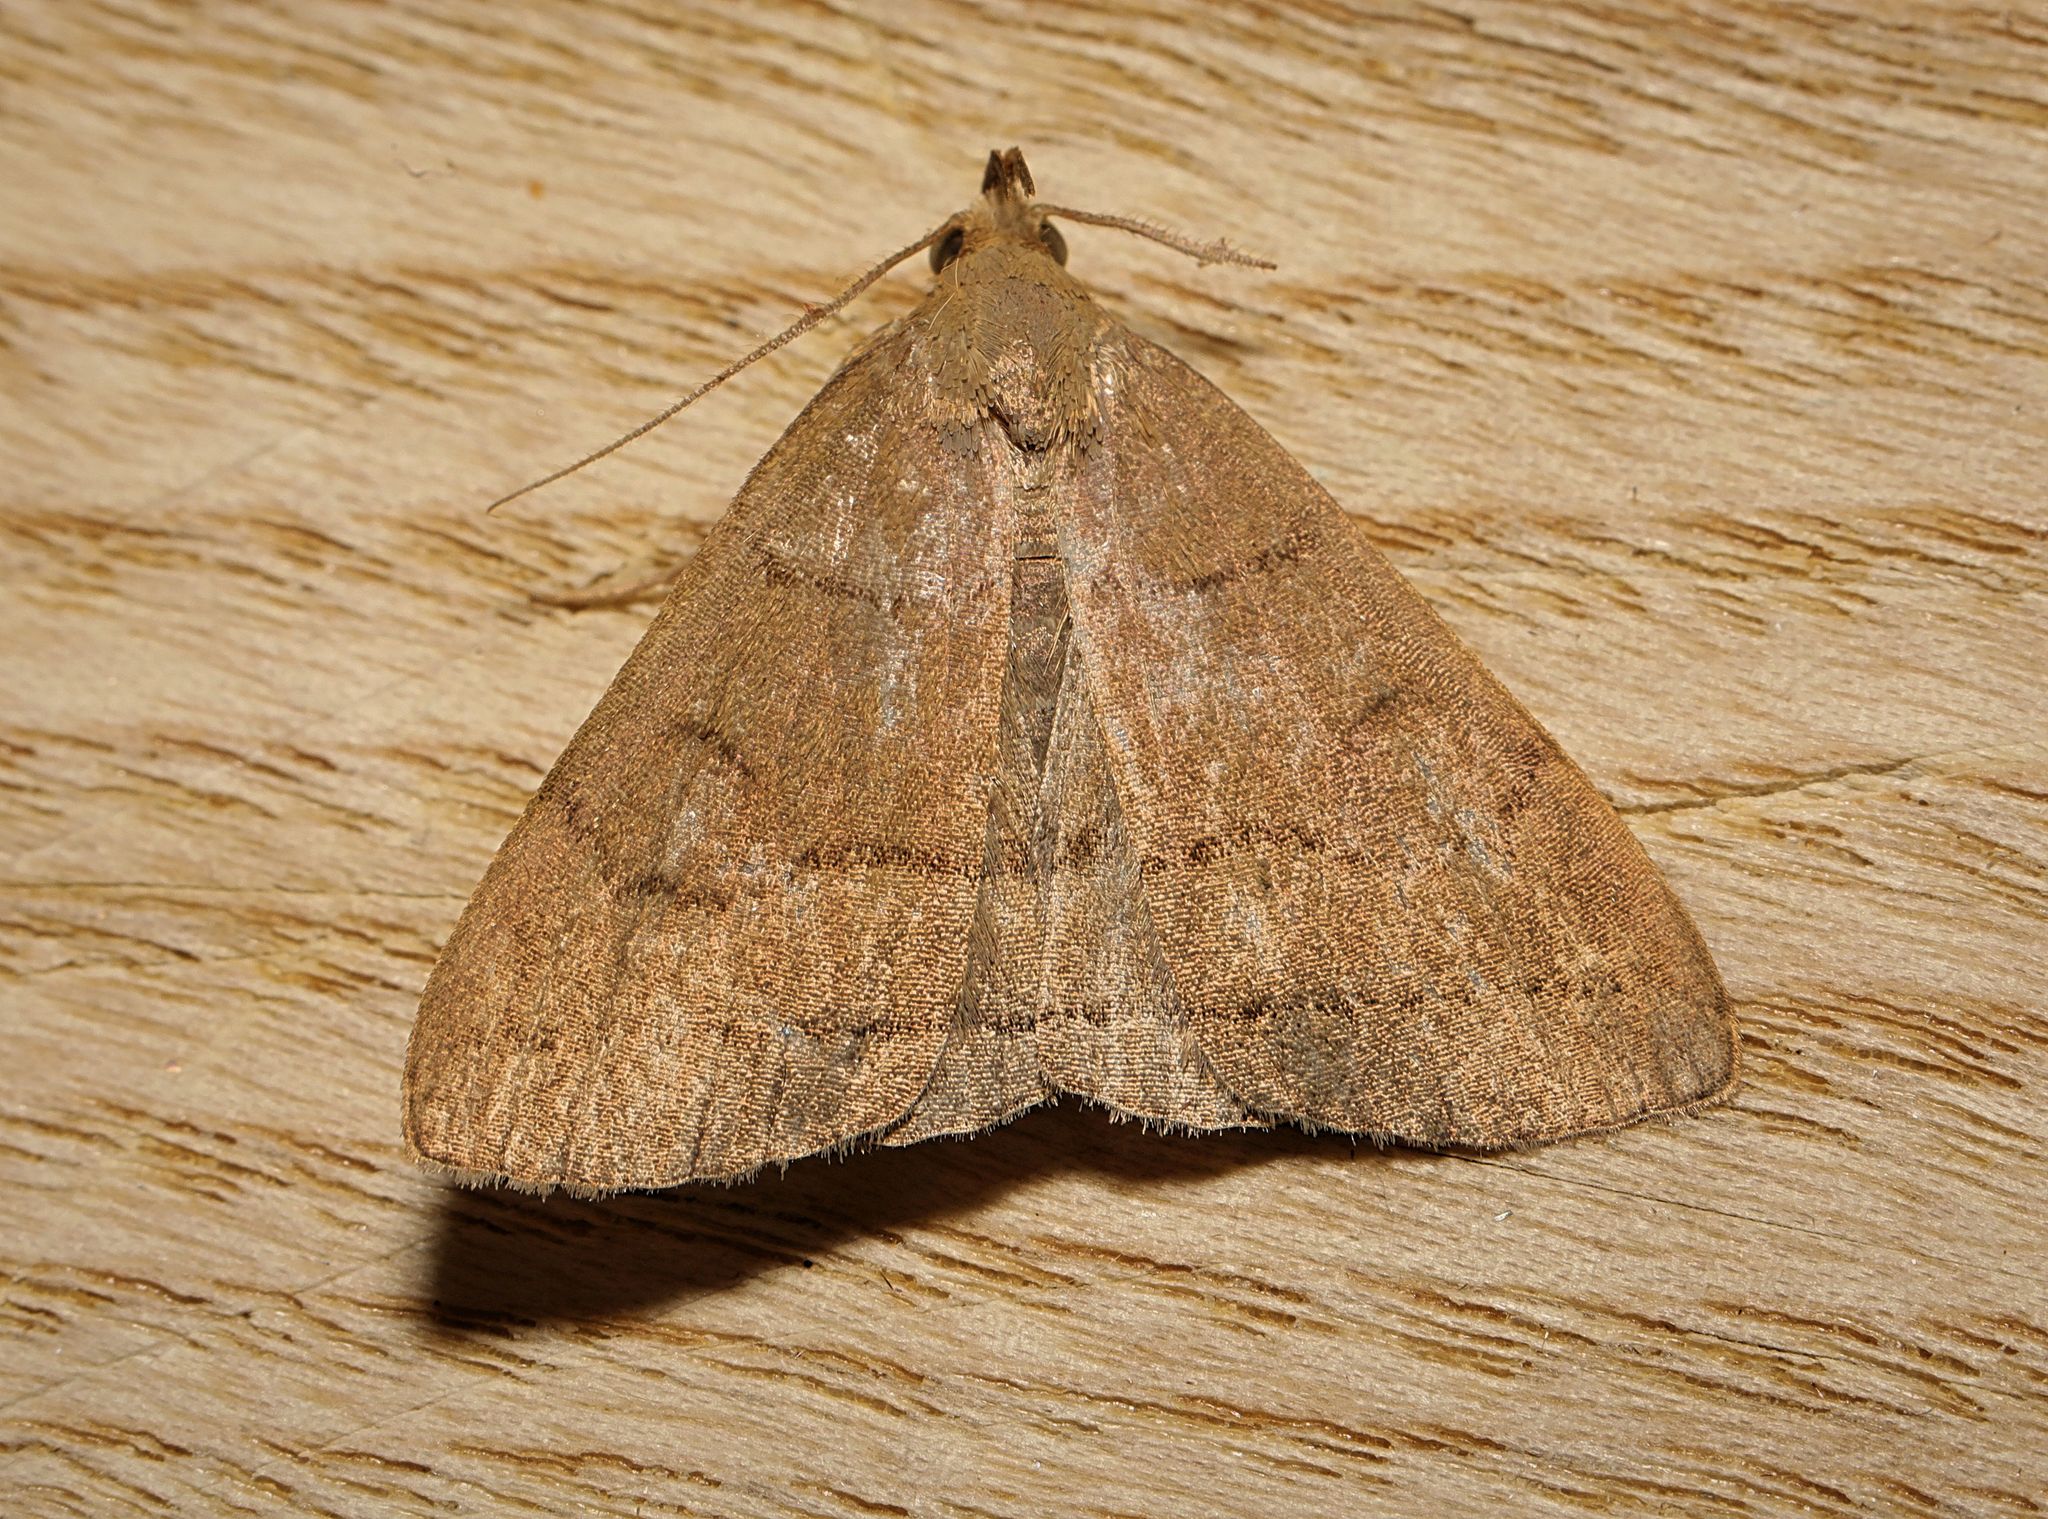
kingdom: Animalia
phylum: Arthropoda
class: Insecta
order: Lepidoptera
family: Erebidae
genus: Herminia
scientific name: Herminia tarsipennalis
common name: Fan-foot
